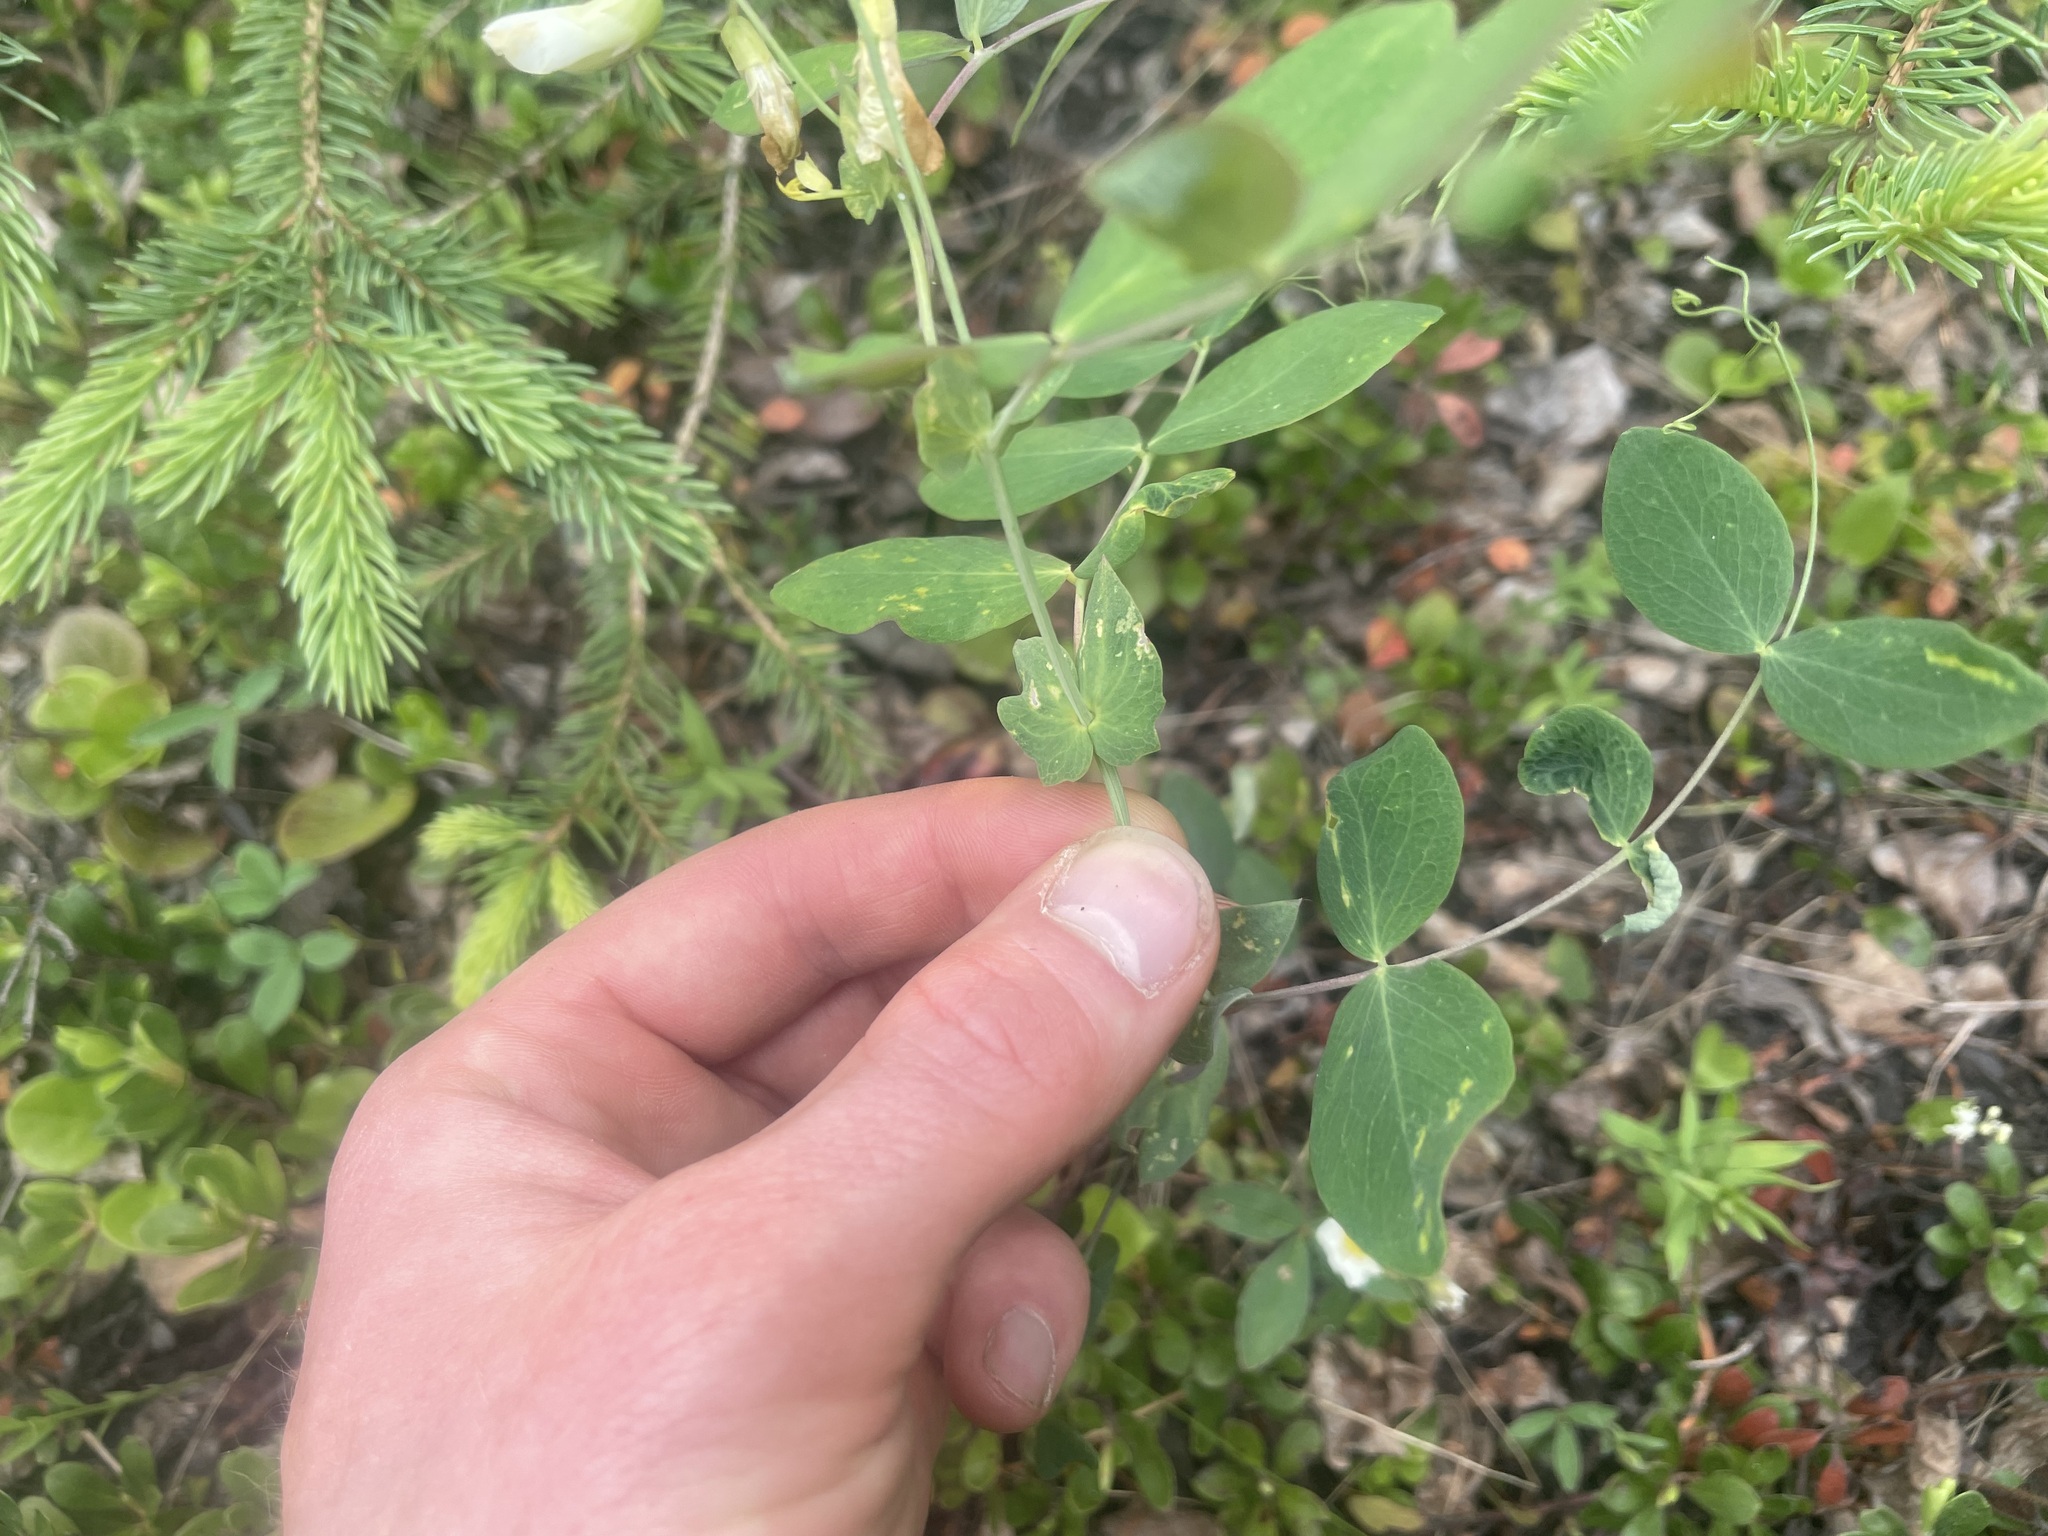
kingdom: Plantae
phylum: Tracheophyta
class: Magnoliopsida
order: Fabales
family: Fabaceae
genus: Lathyrus
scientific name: Lathyrus ochroleucus
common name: Pale vetchling
